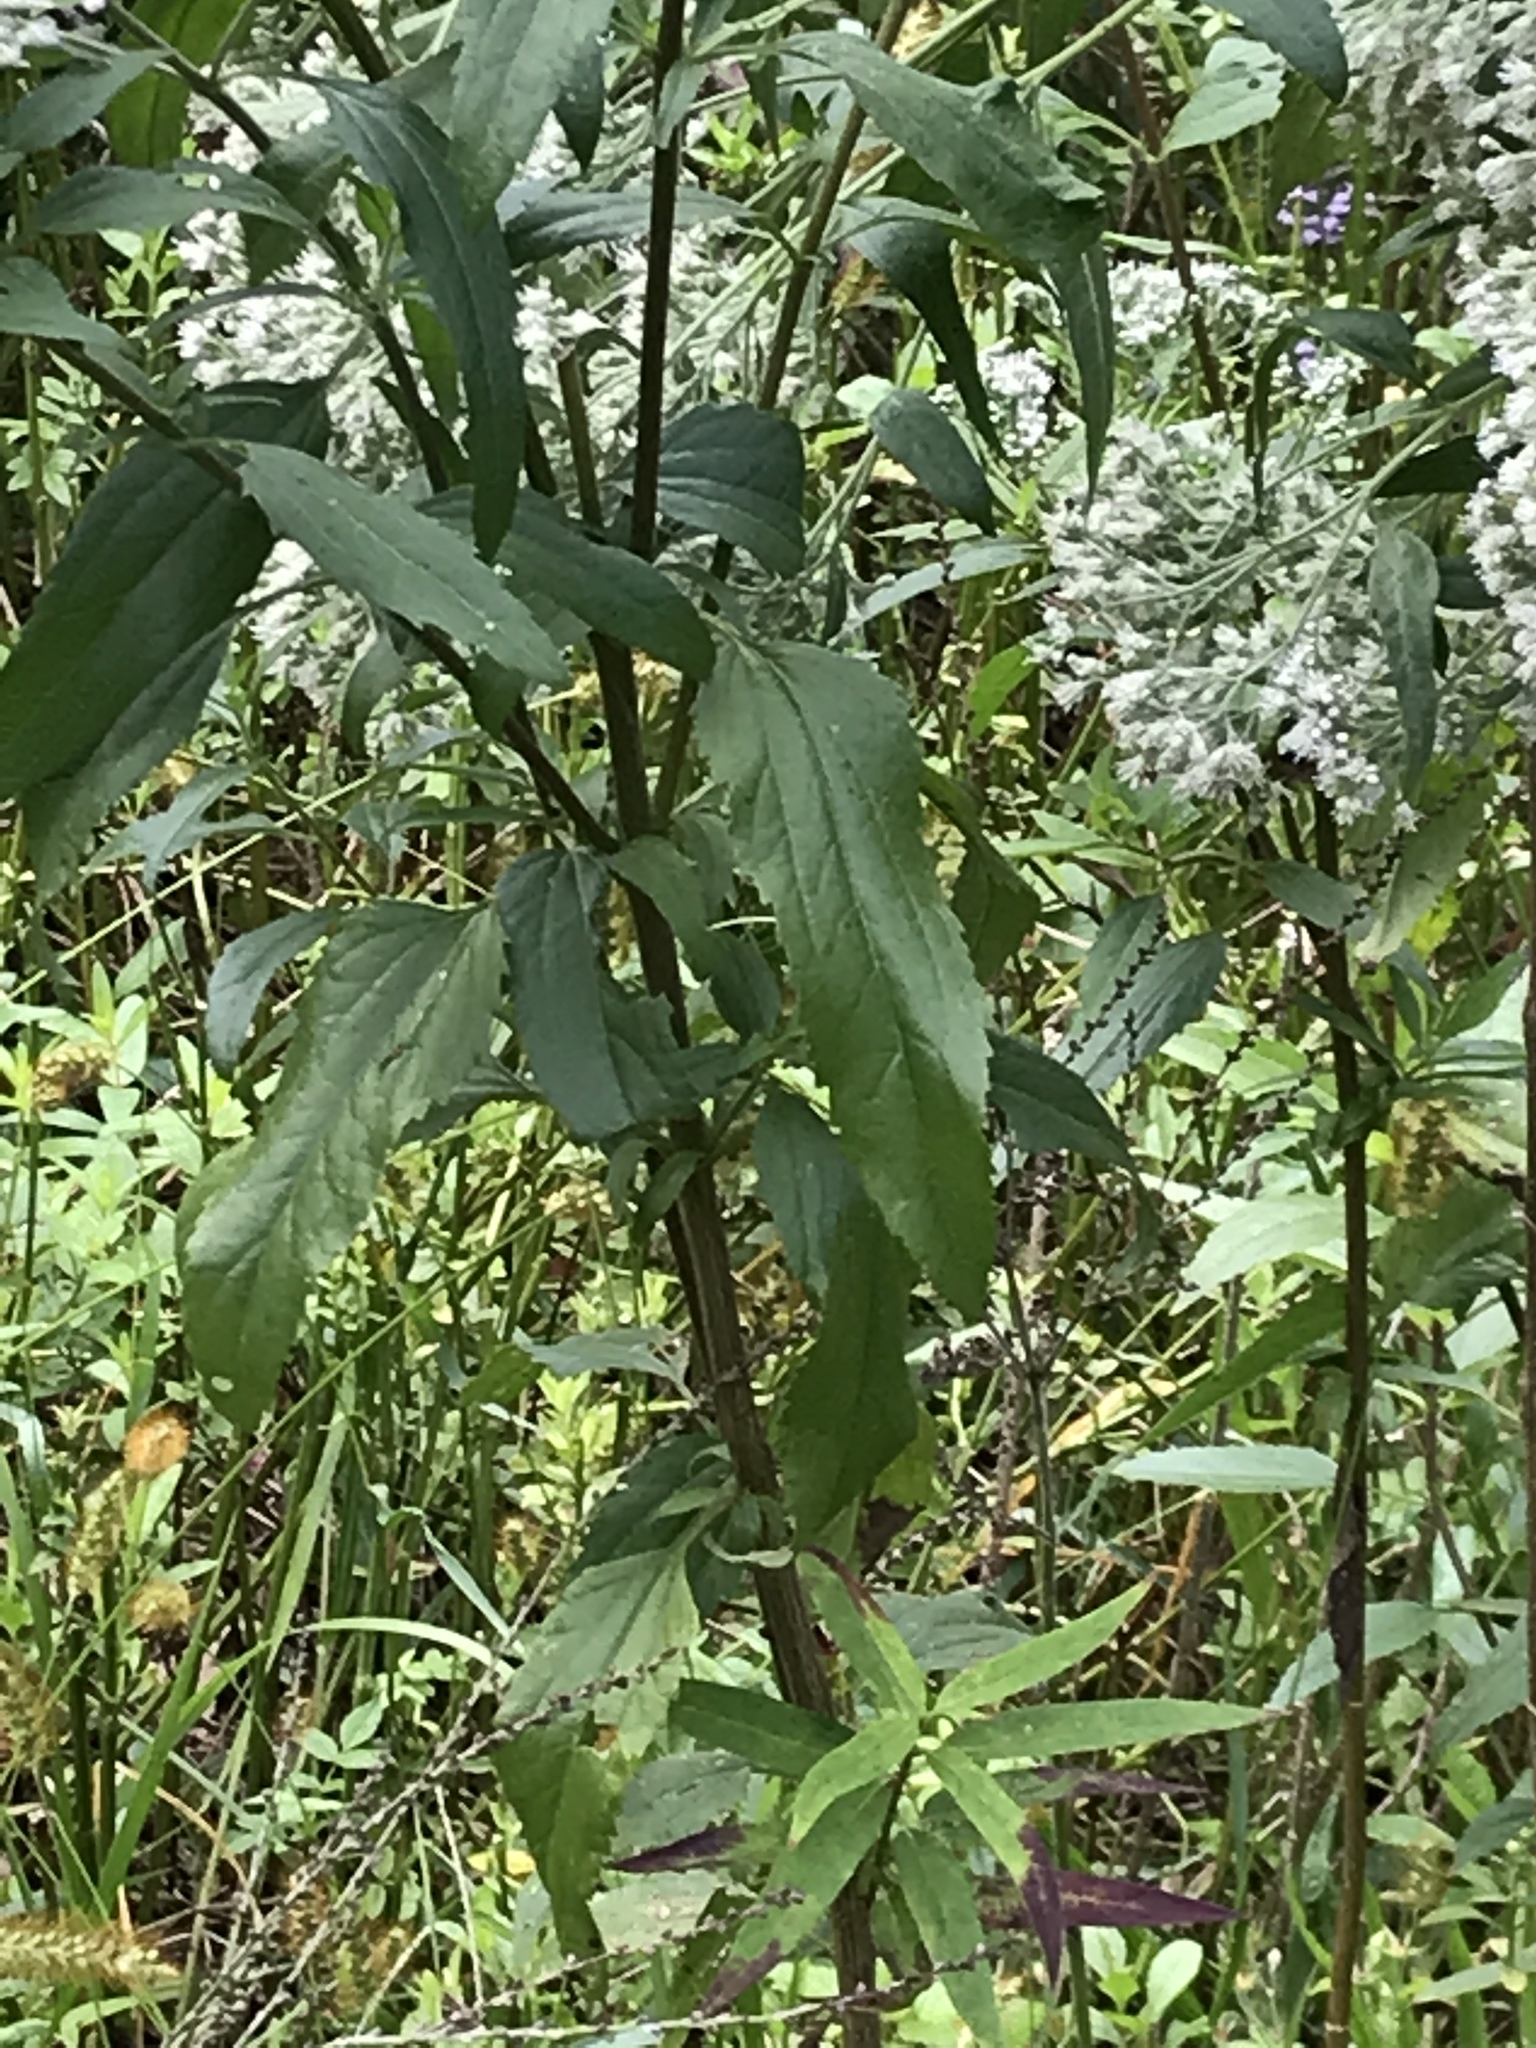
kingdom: Plantae
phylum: Tracheophyta
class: Magnoliopsida
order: Asterales
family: Asteraceae
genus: Eupatorium
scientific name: Eupatorium serotinum
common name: Late boneset
